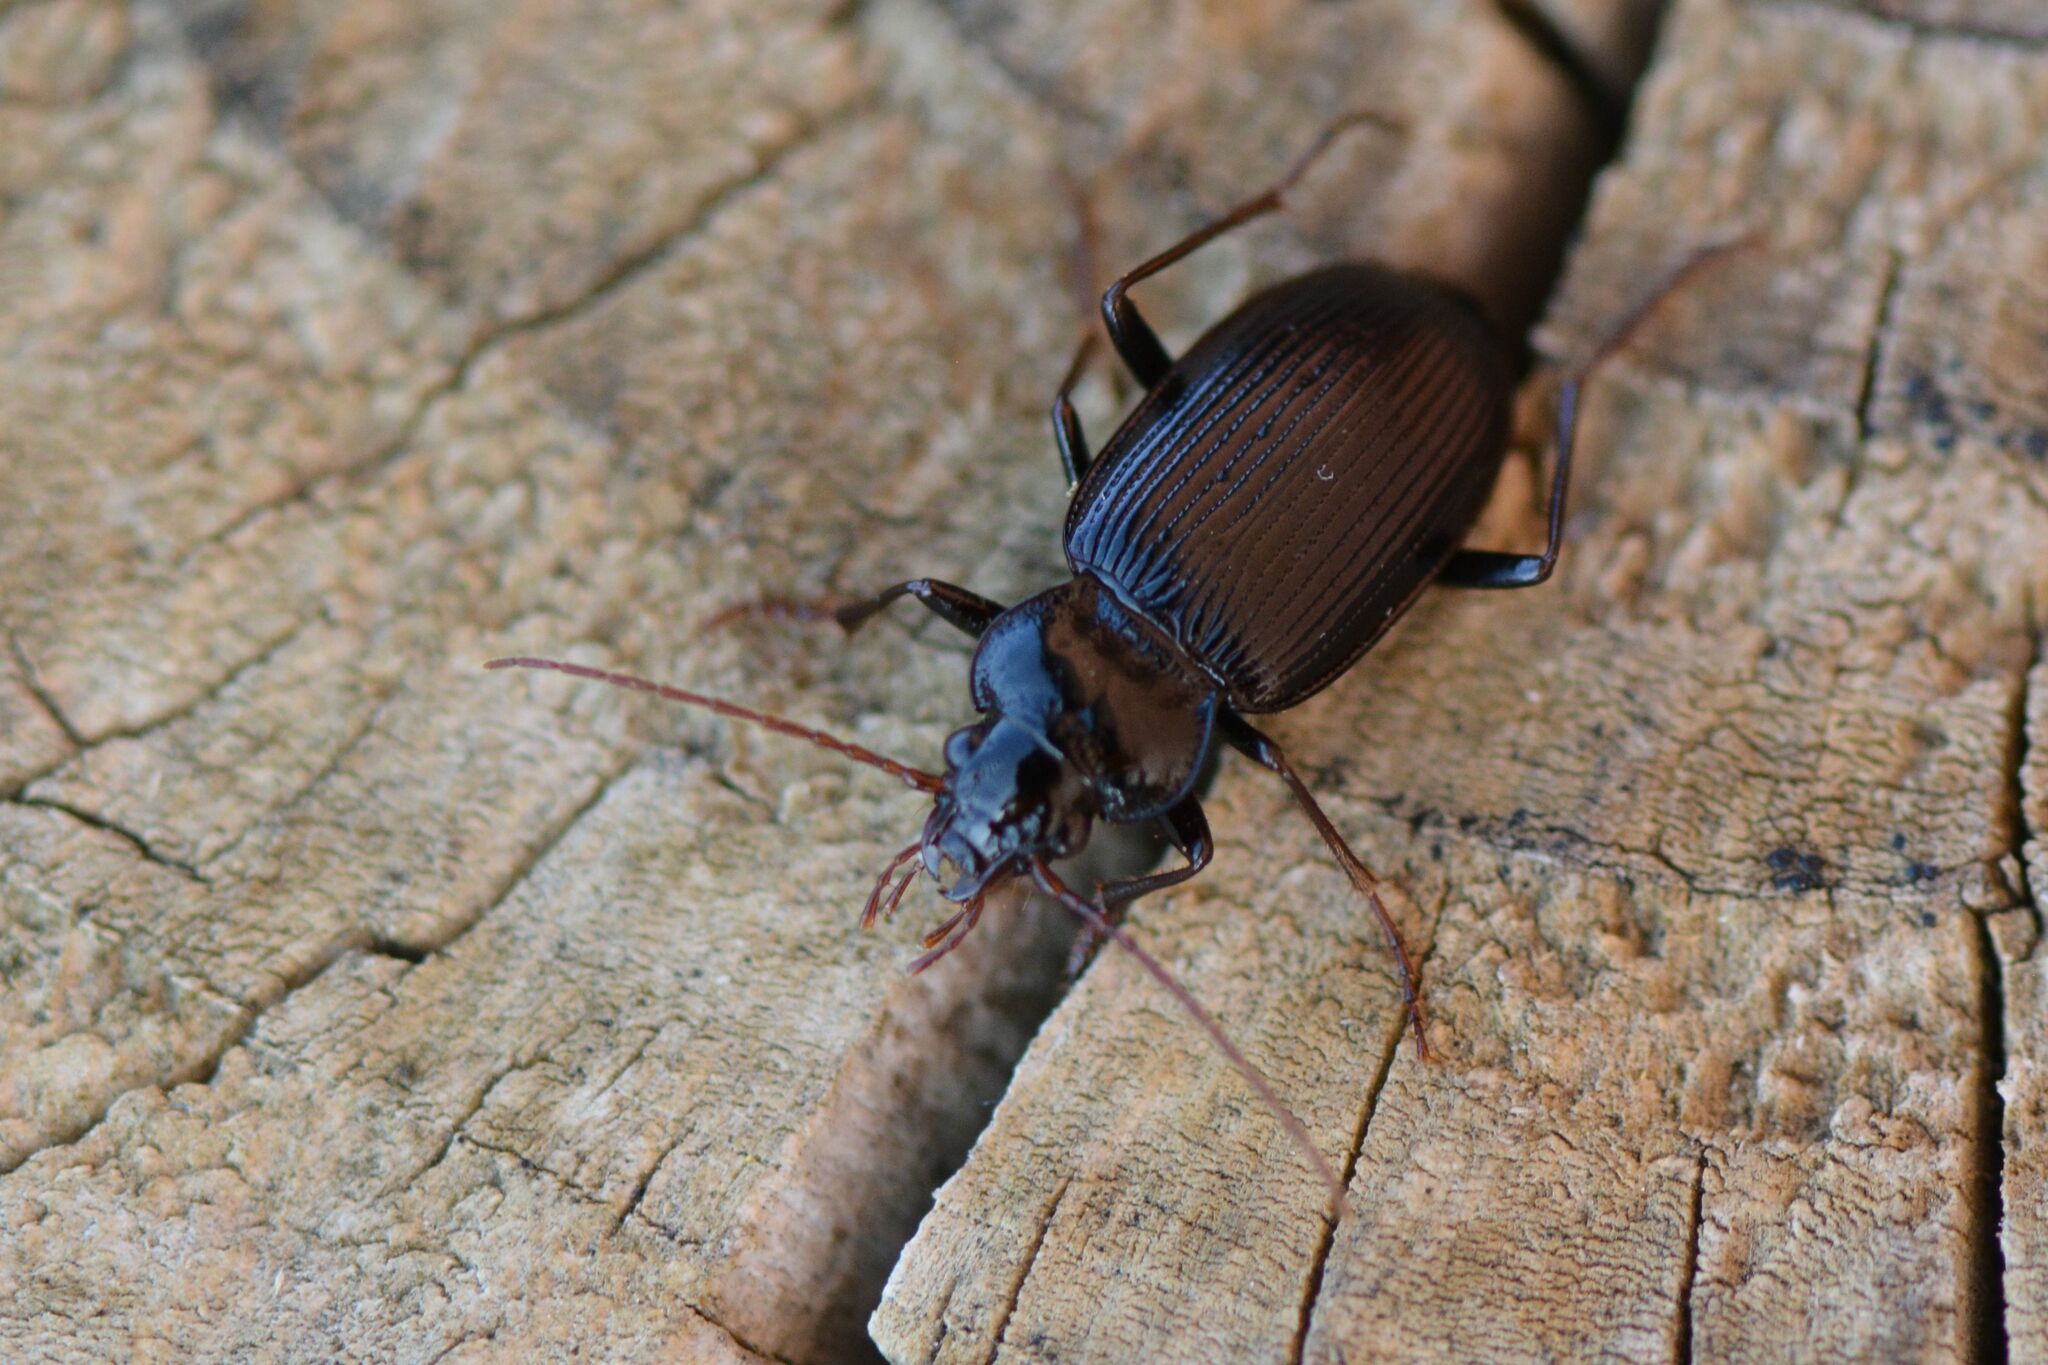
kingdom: Animalia
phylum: Arthropoda
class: Insecta
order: Coleoptera
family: Carabidae
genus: Nebria
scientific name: Nebria brevicollis
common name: Short-necked gazelle beetle
